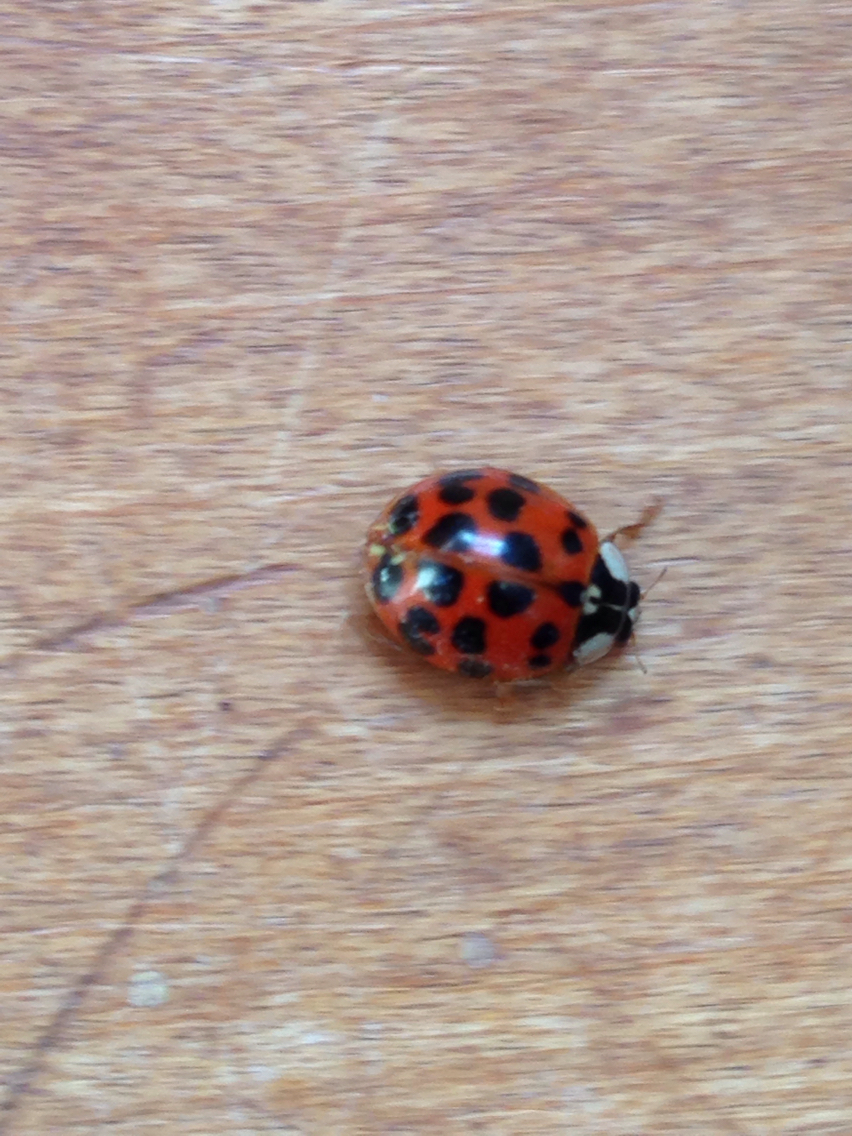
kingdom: Animalia
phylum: Arthropoda
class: Insecta
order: Coleoptera
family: Coccinellidae
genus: Harmonia
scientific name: Harmonia axyridis
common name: Harlequin ladybird
